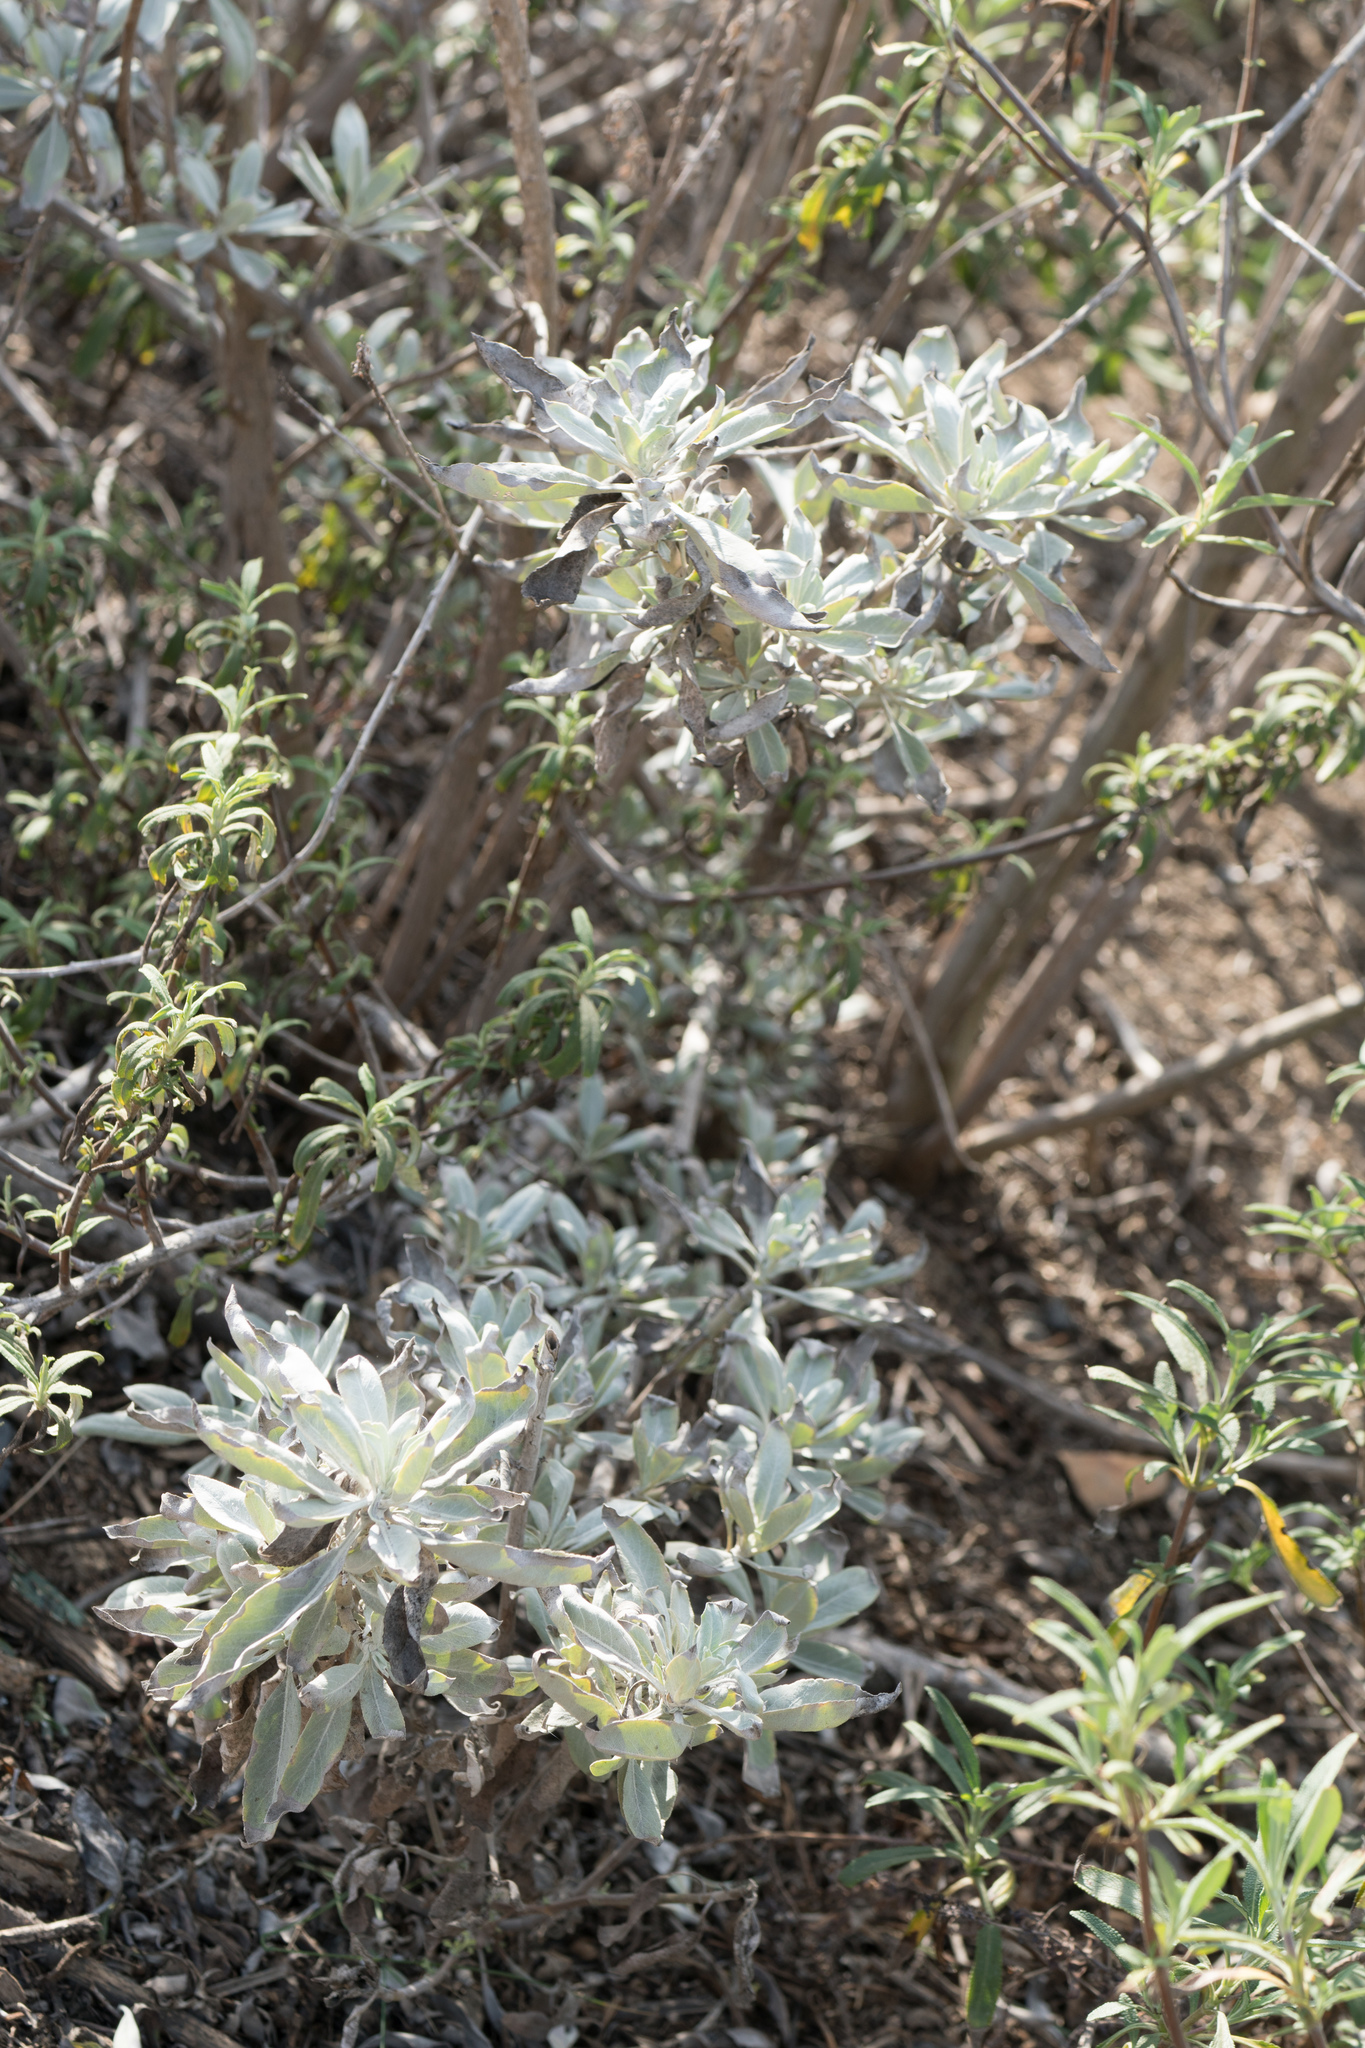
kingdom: Plantae
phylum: Tracheophyta
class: Magnoliopsida
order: Lamiales
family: Lamiaceae
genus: Salvia
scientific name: Salvia apiana
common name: White sage
